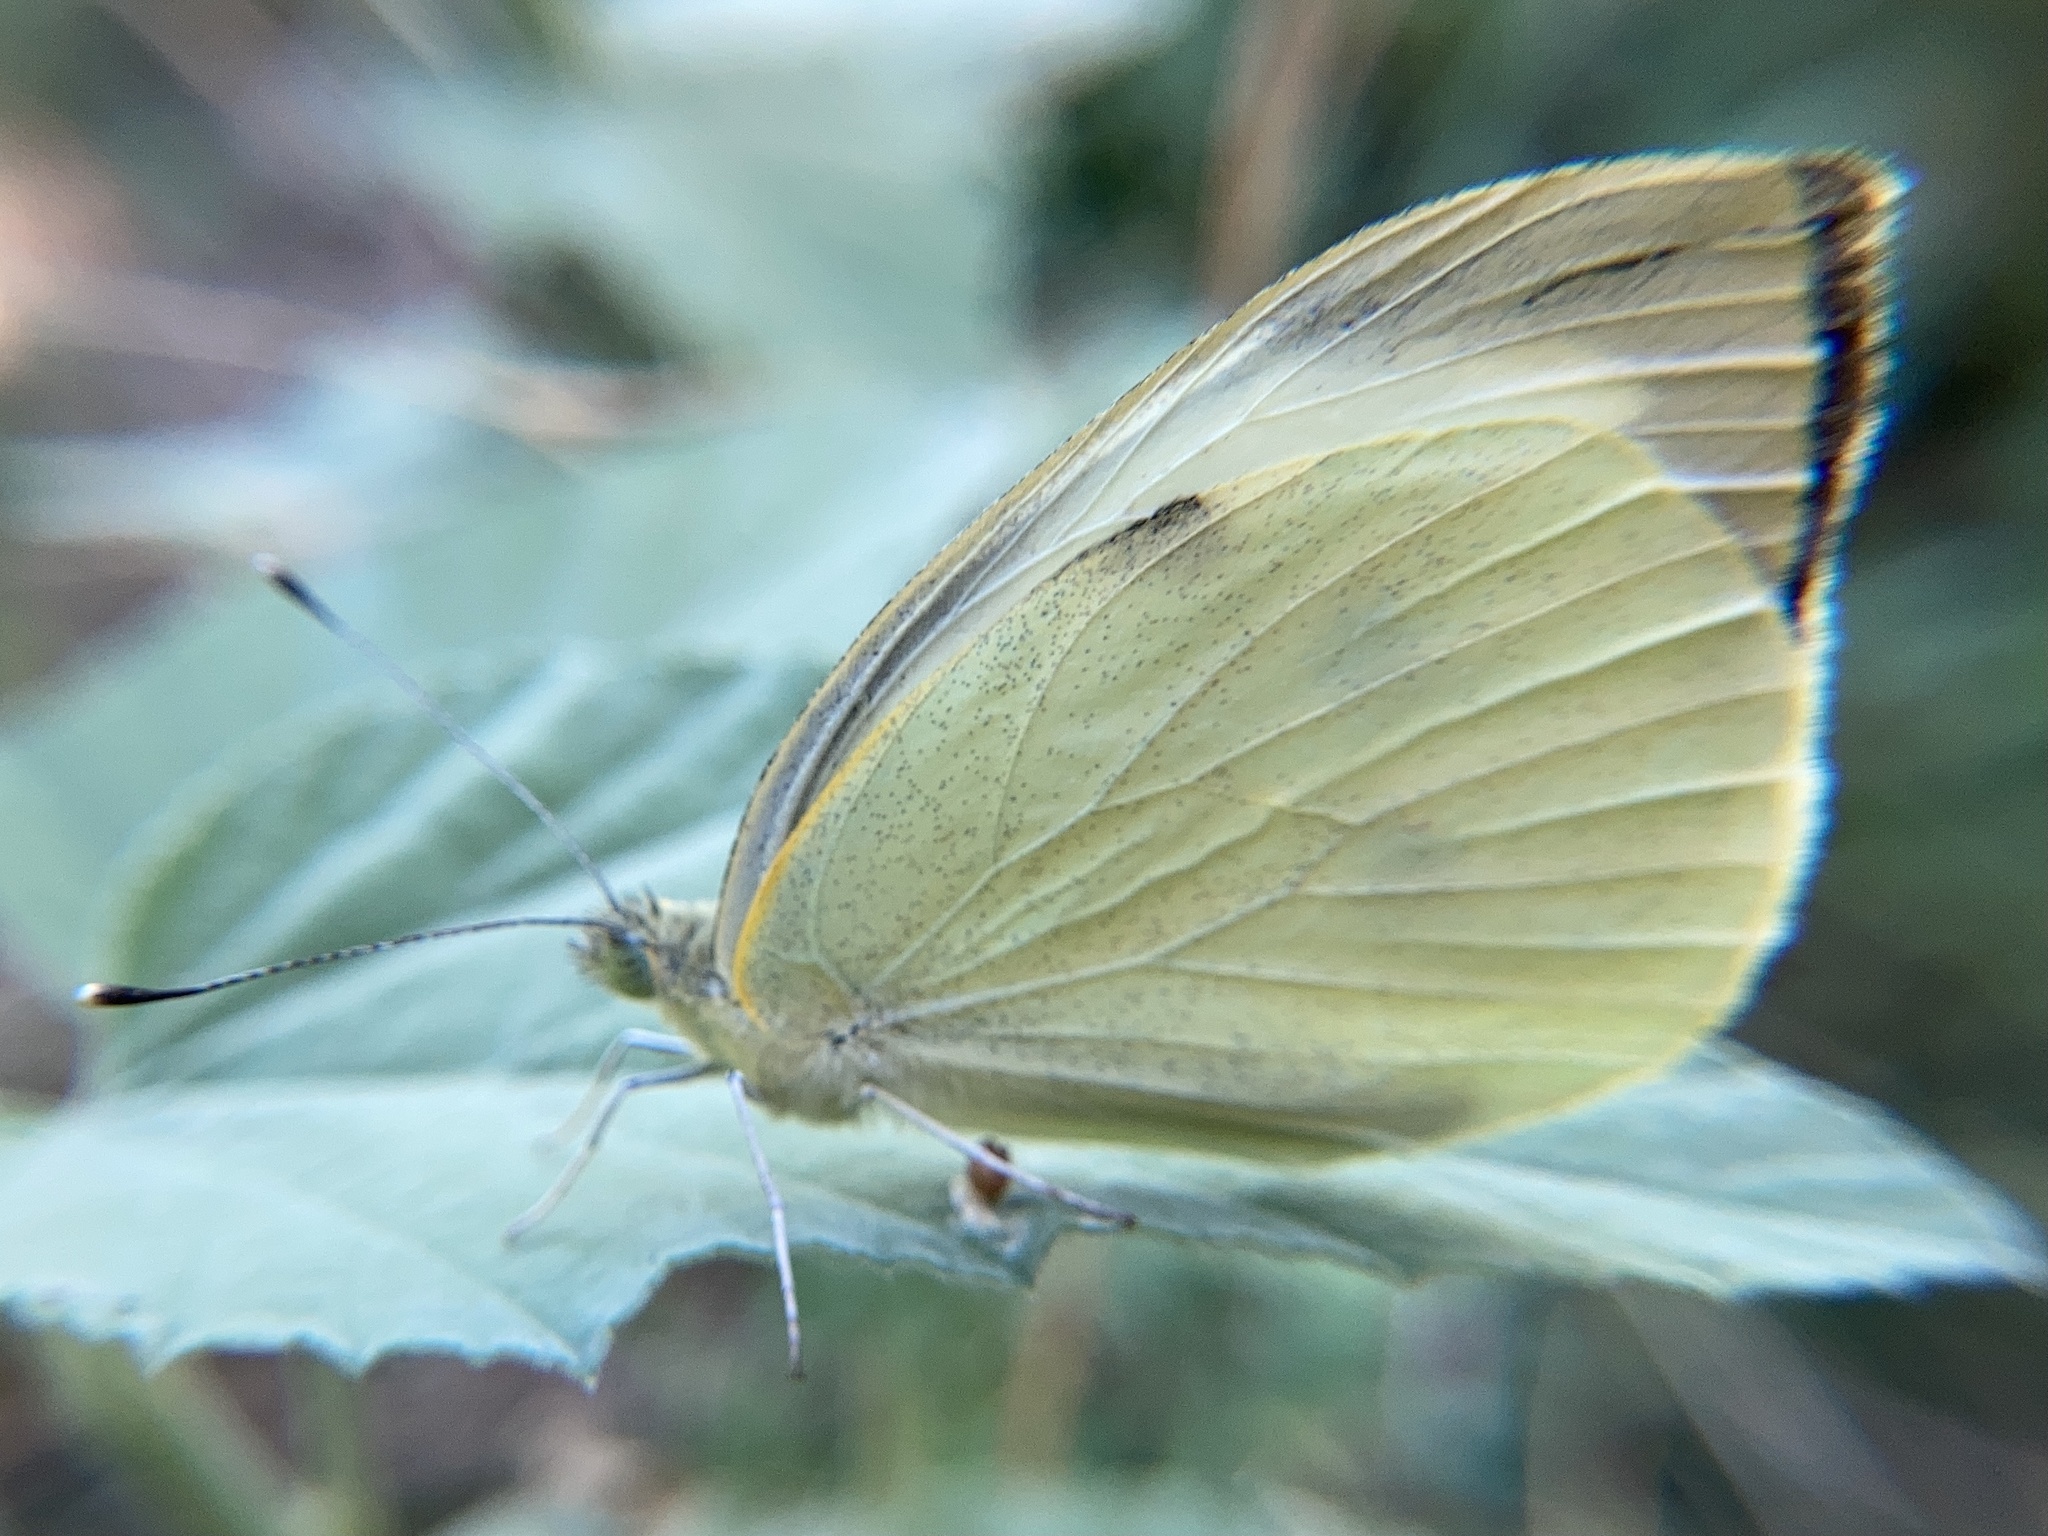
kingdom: Animalia
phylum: Arthropoda
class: Insecta
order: Lepidoptera
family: Pieridae
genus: Pieris
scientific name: Pieris brassicae
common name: Large white
